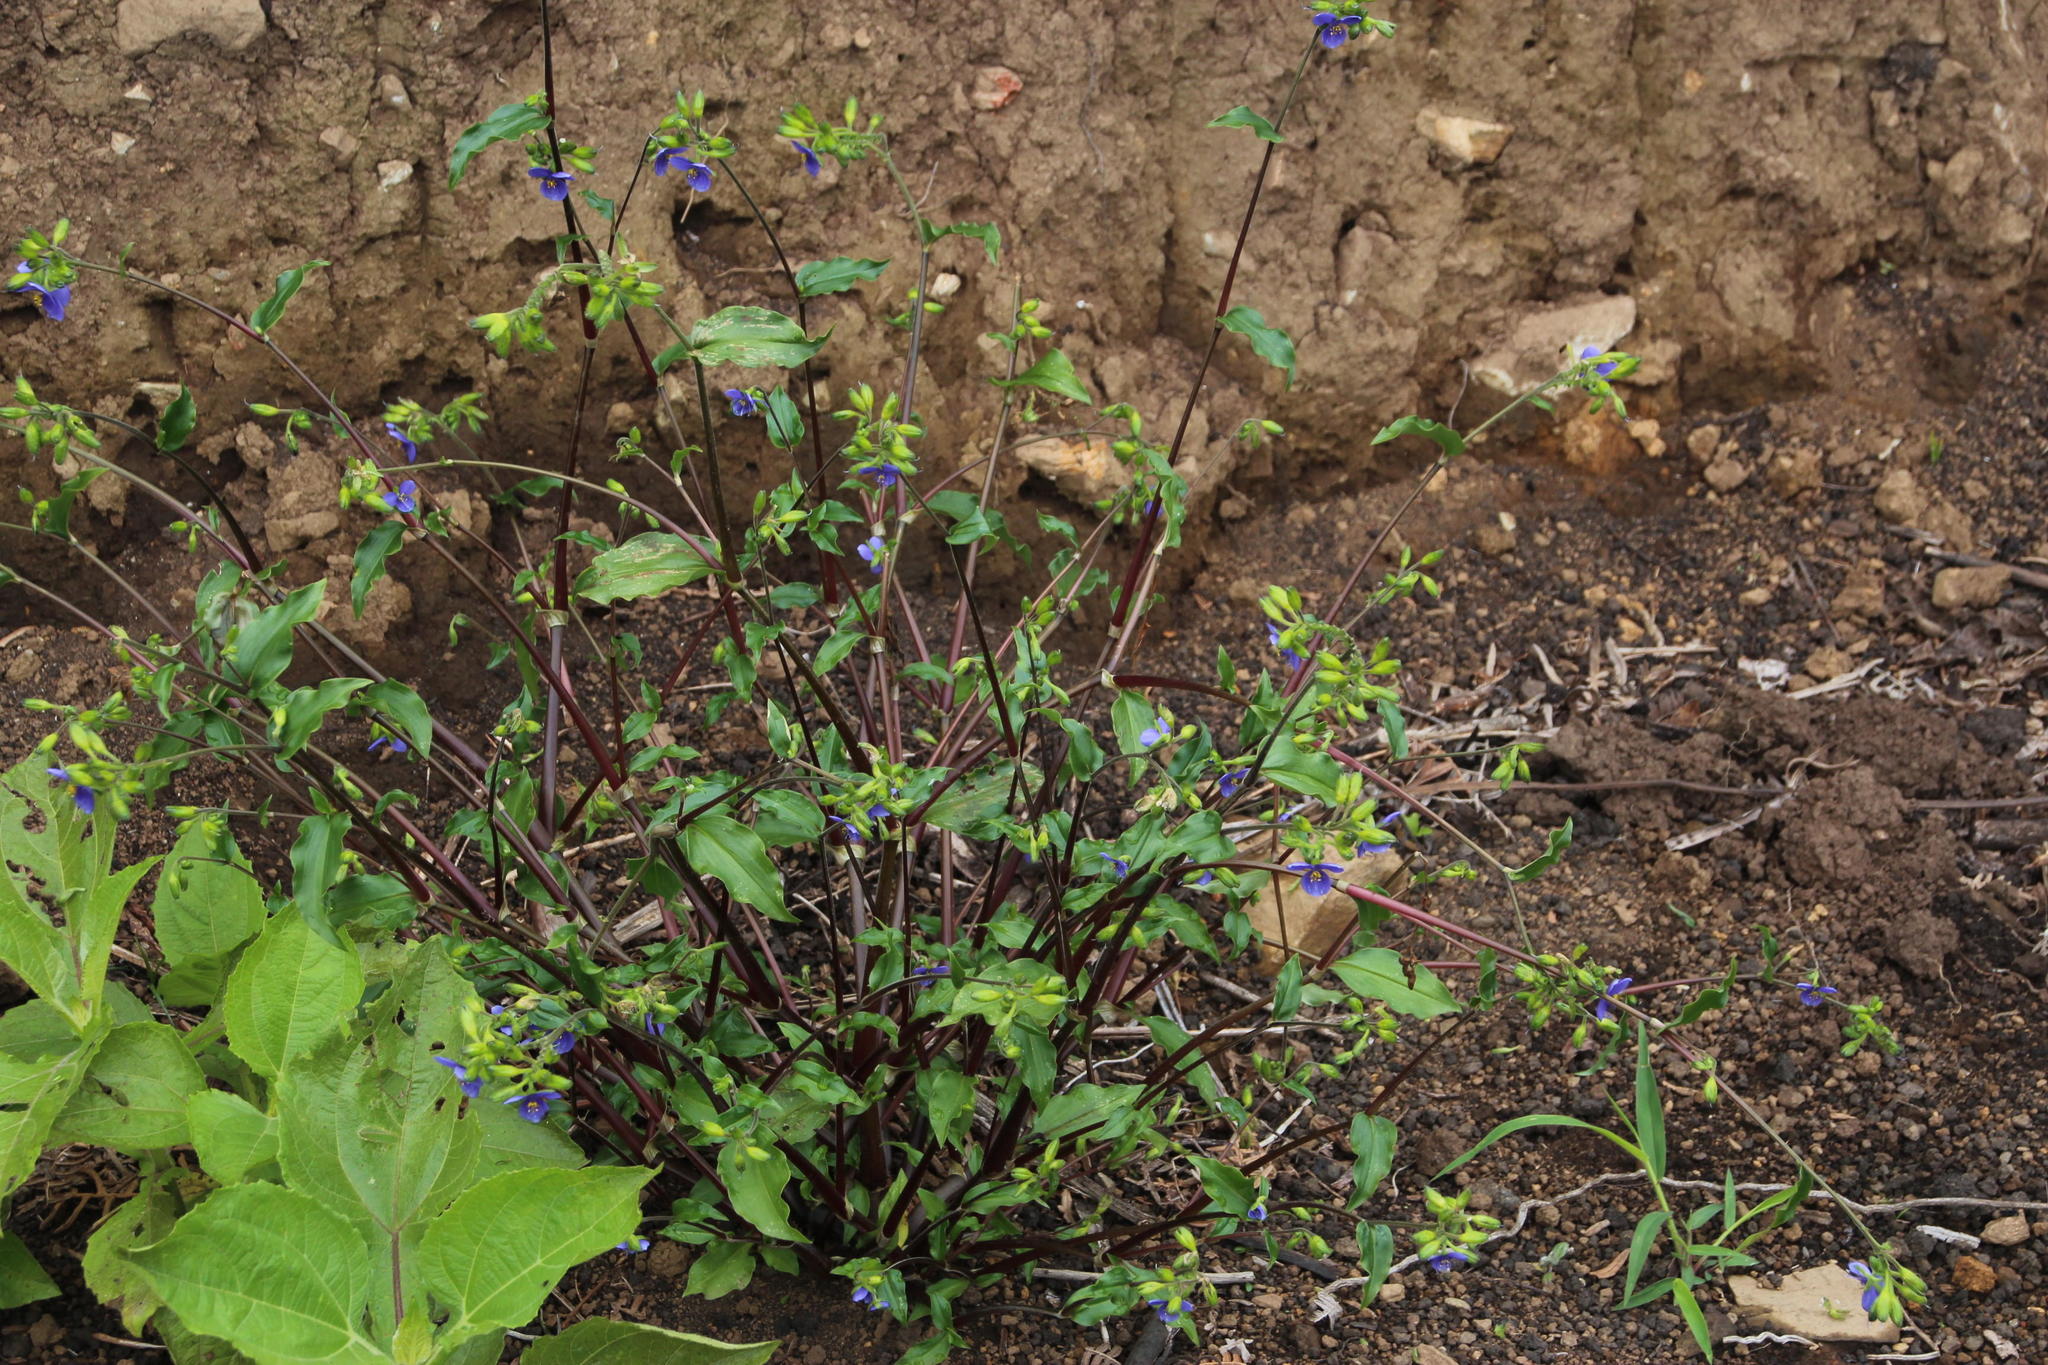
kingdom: Plantae
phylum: Tracheophyta
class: Liliopsida
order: Commelinales
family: Commelinaceae
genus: Tinantia
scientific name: Tinantia erecta
